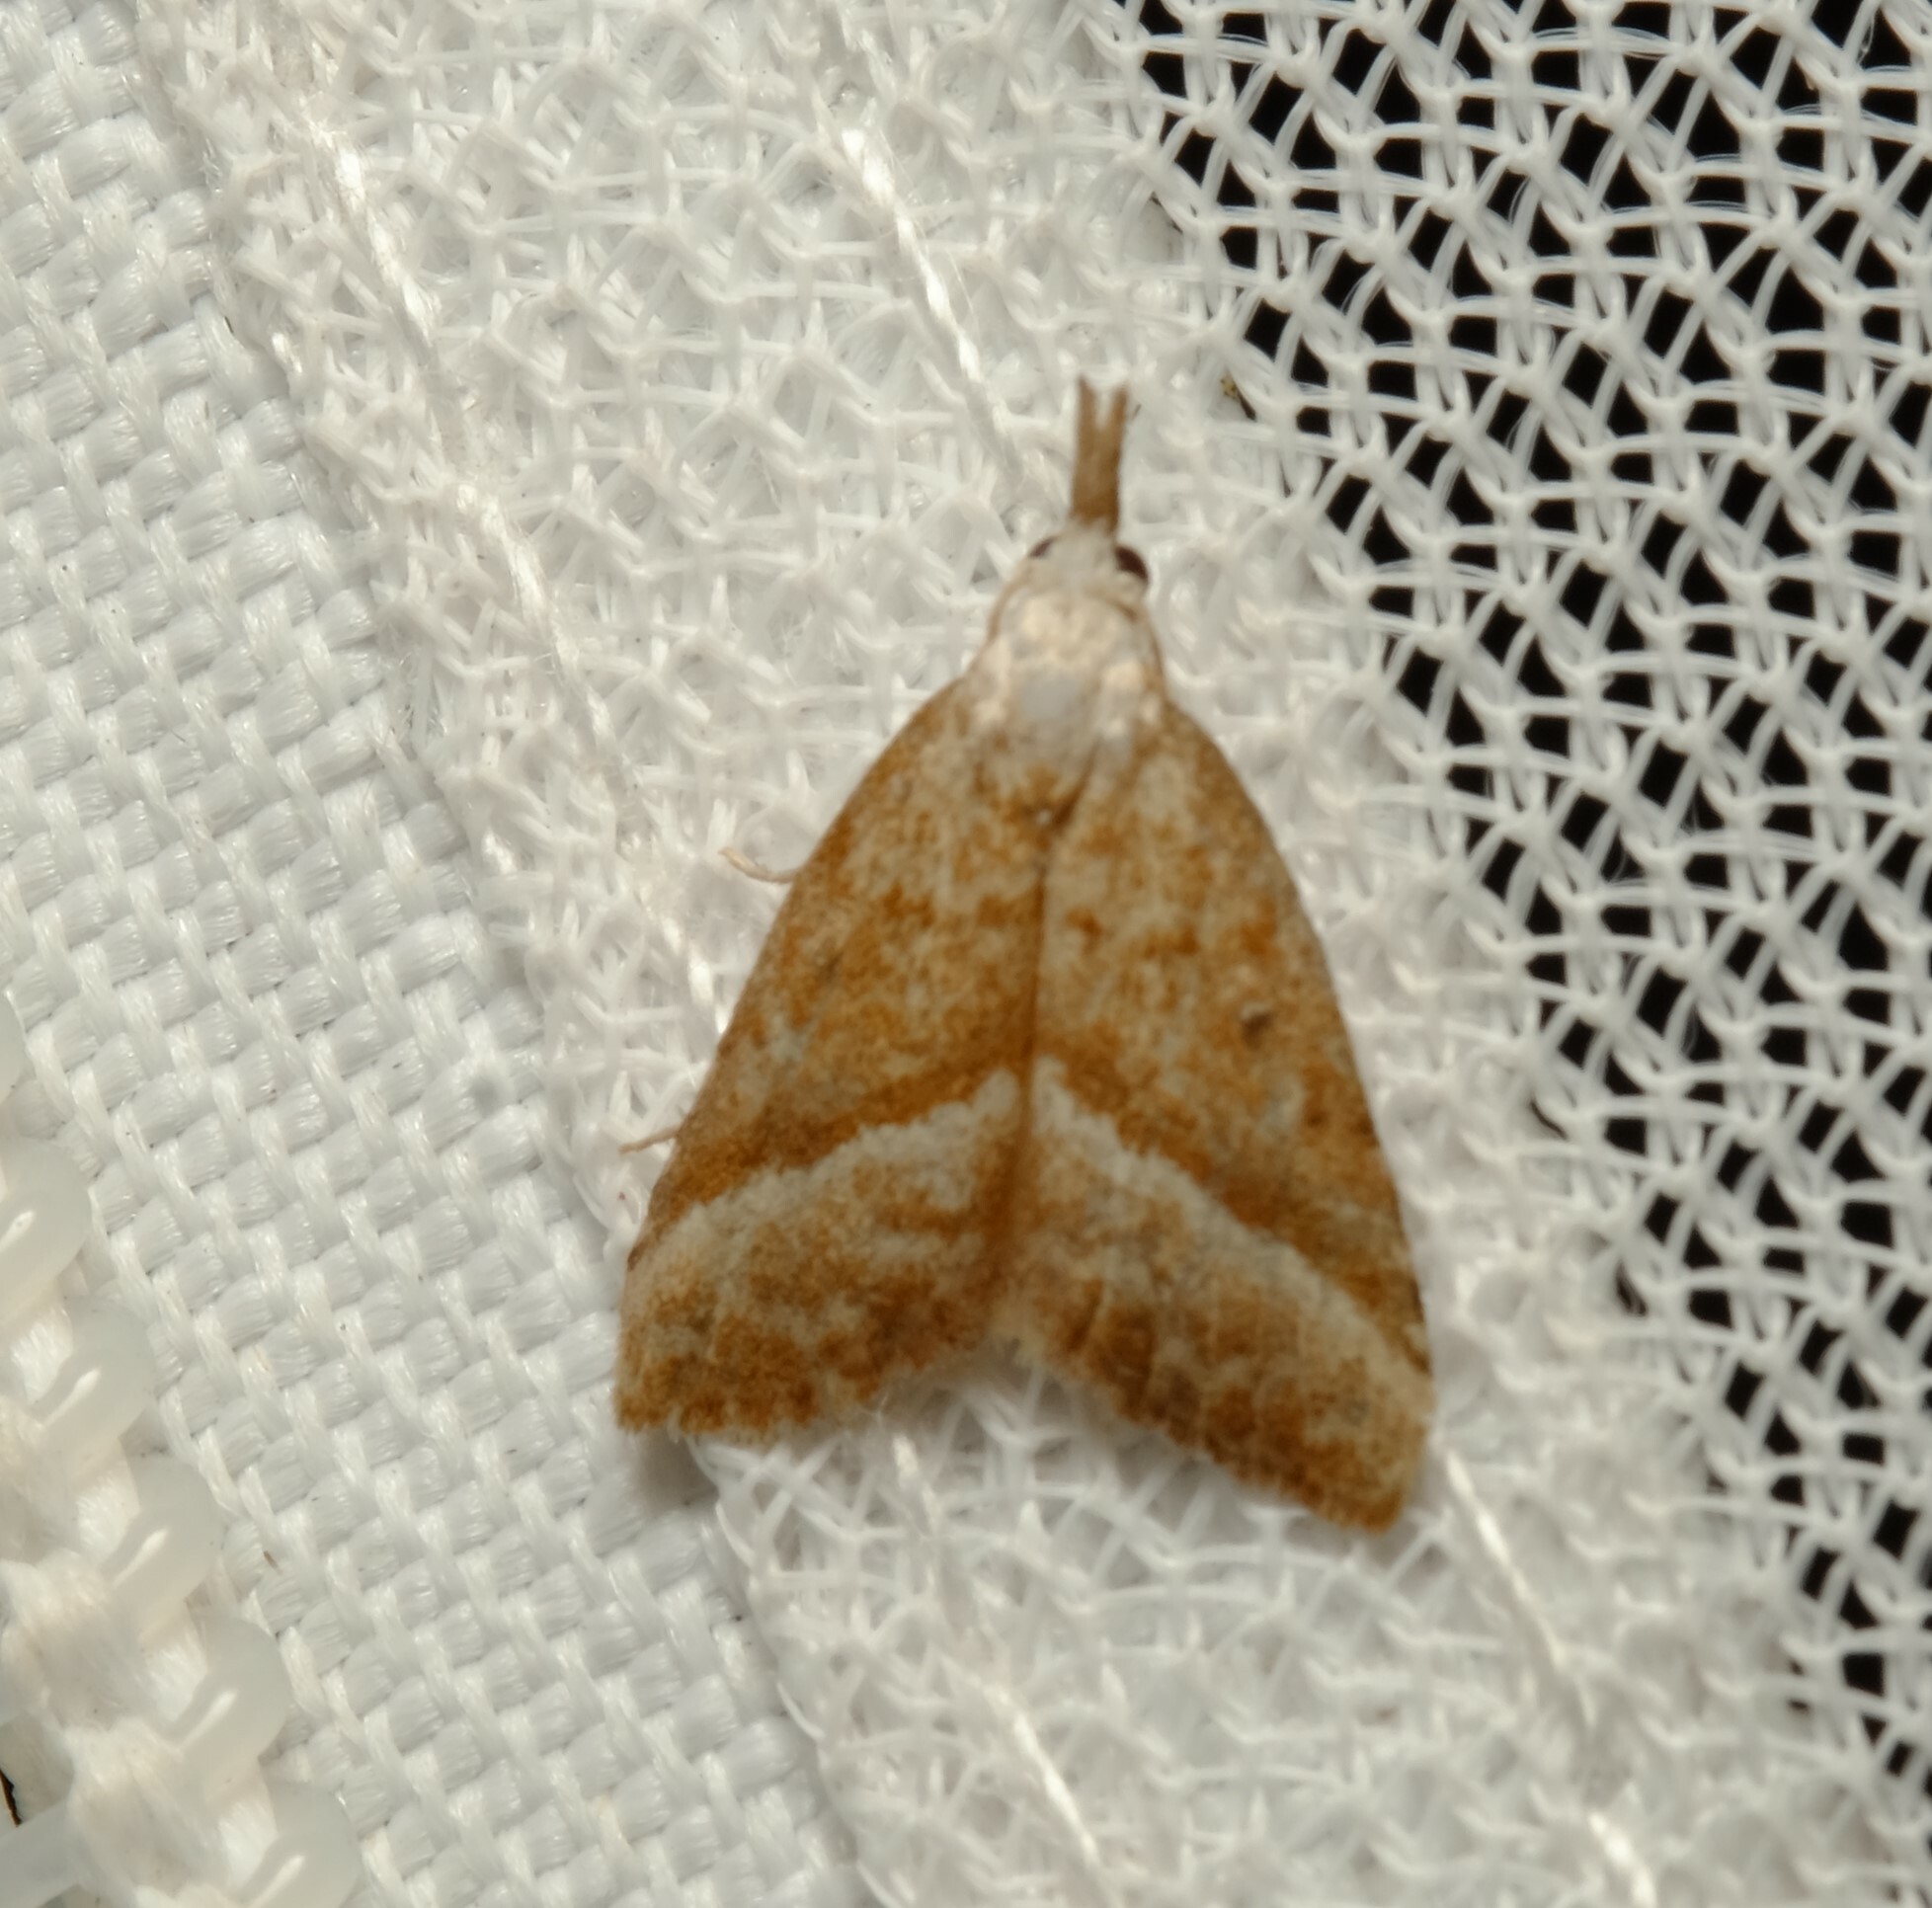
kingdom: Animalia
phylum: Arthropoda
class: Insecta
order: Lepidoptera
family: Nolidae
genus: Nola
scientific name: Nola tholera
